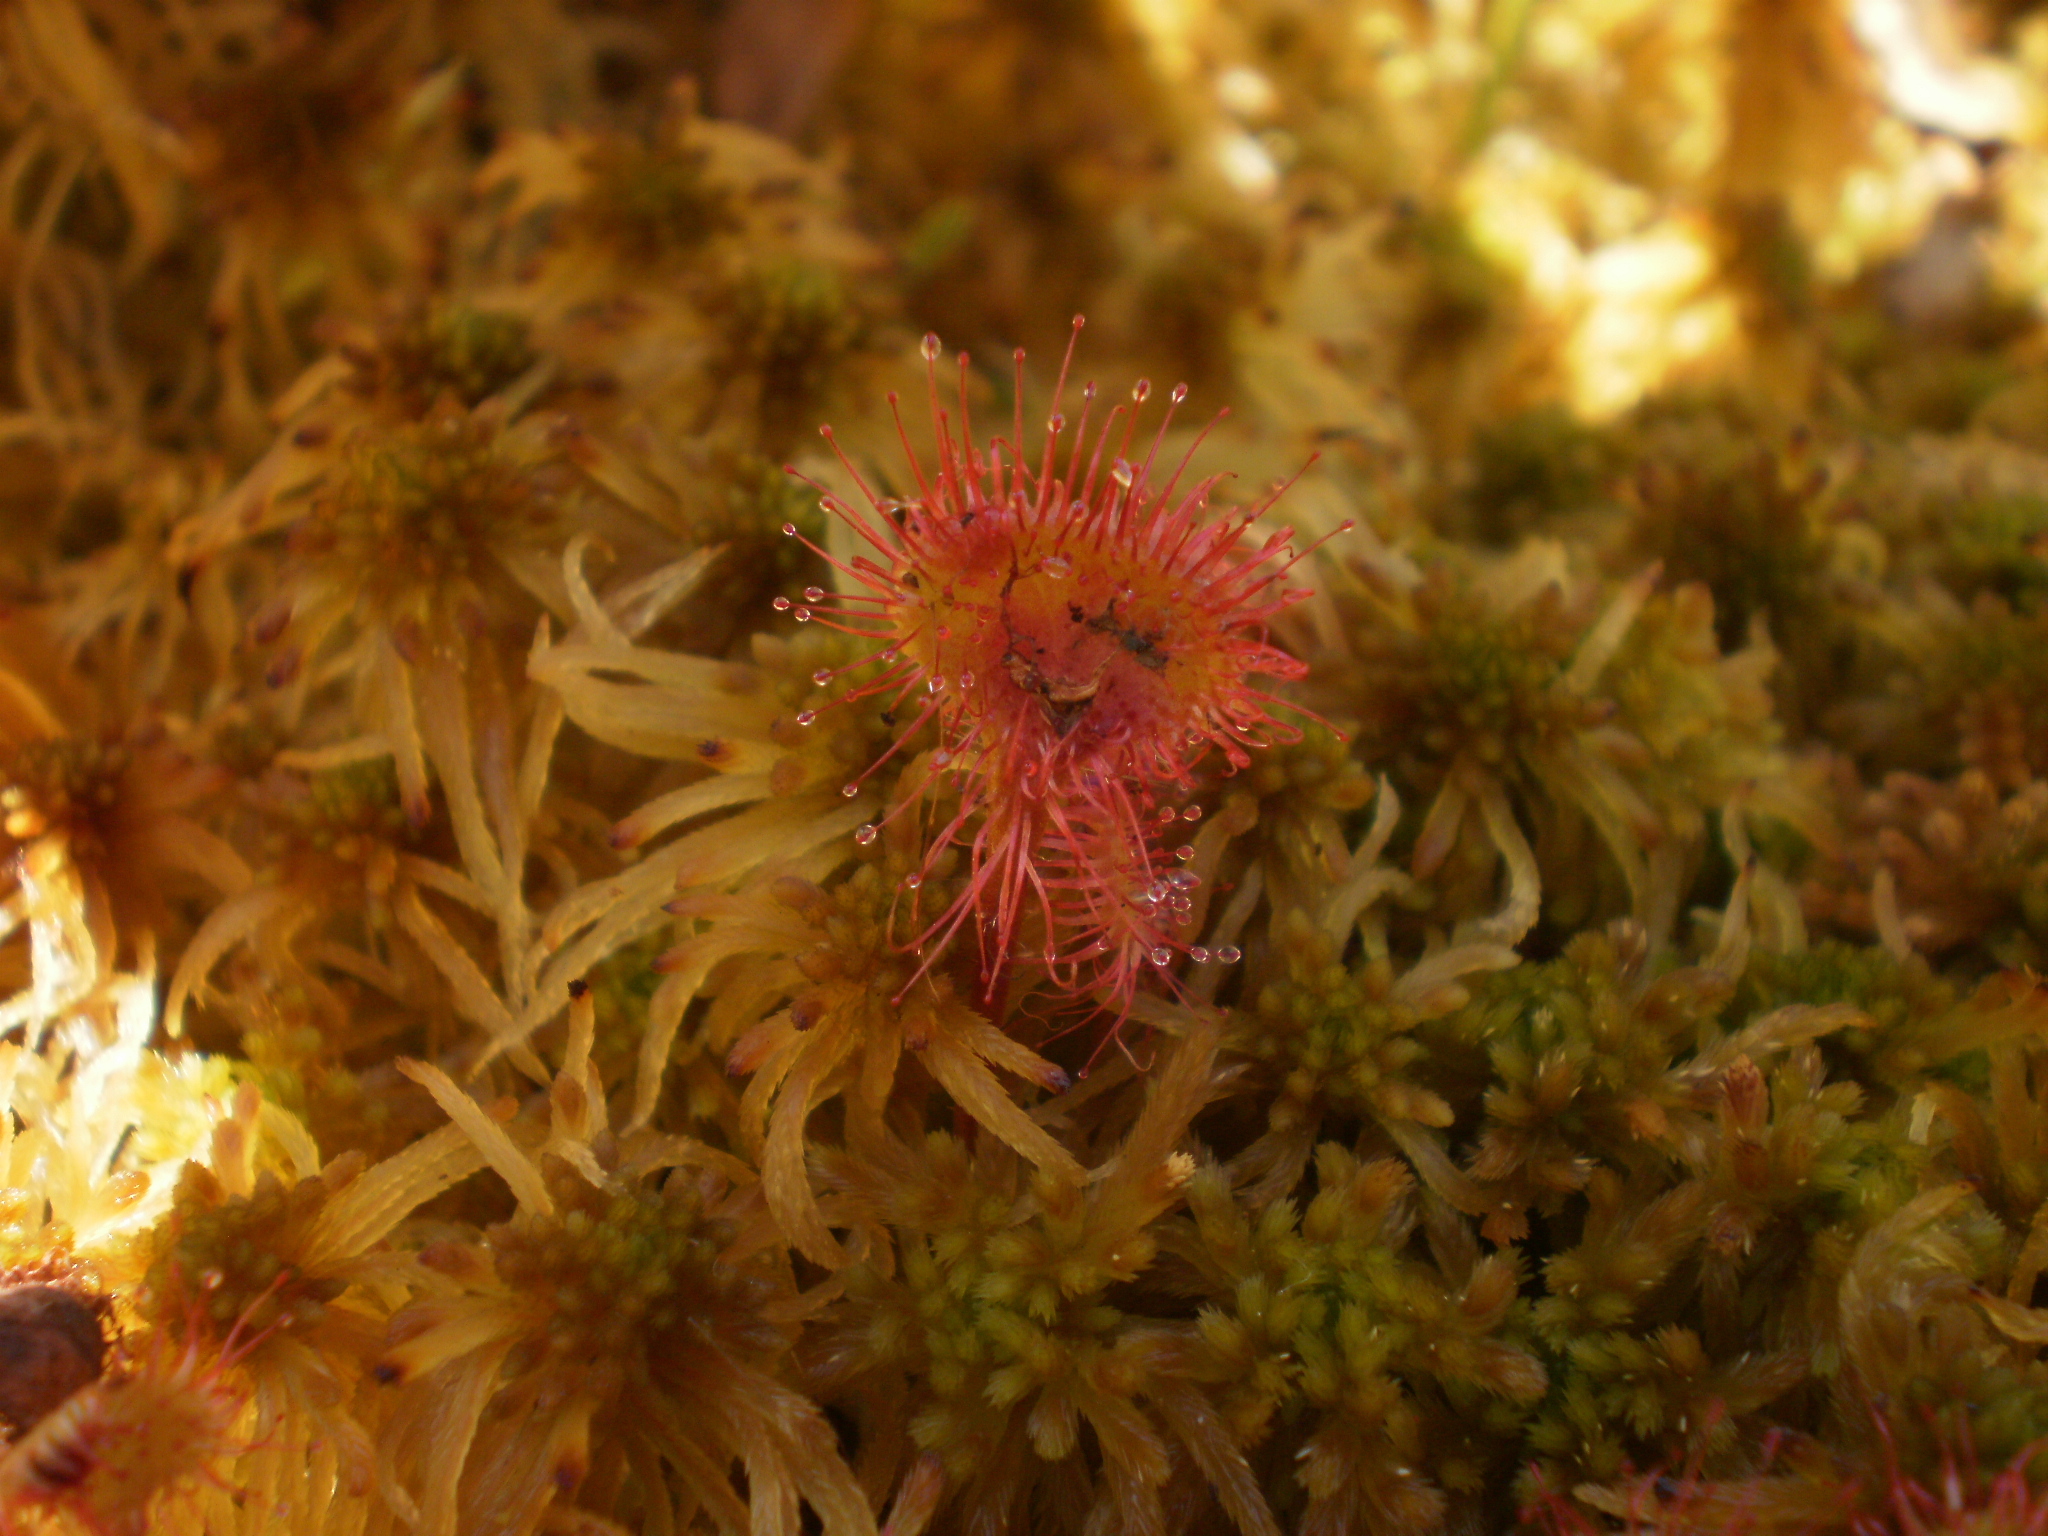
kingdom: Plantae
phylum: Tracheophyta
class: Magnoliopsida
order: Caryophyllales
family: Droseraceae
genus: Drosera
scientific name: Drosera rotundifolia
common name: Round-leaved sundew
